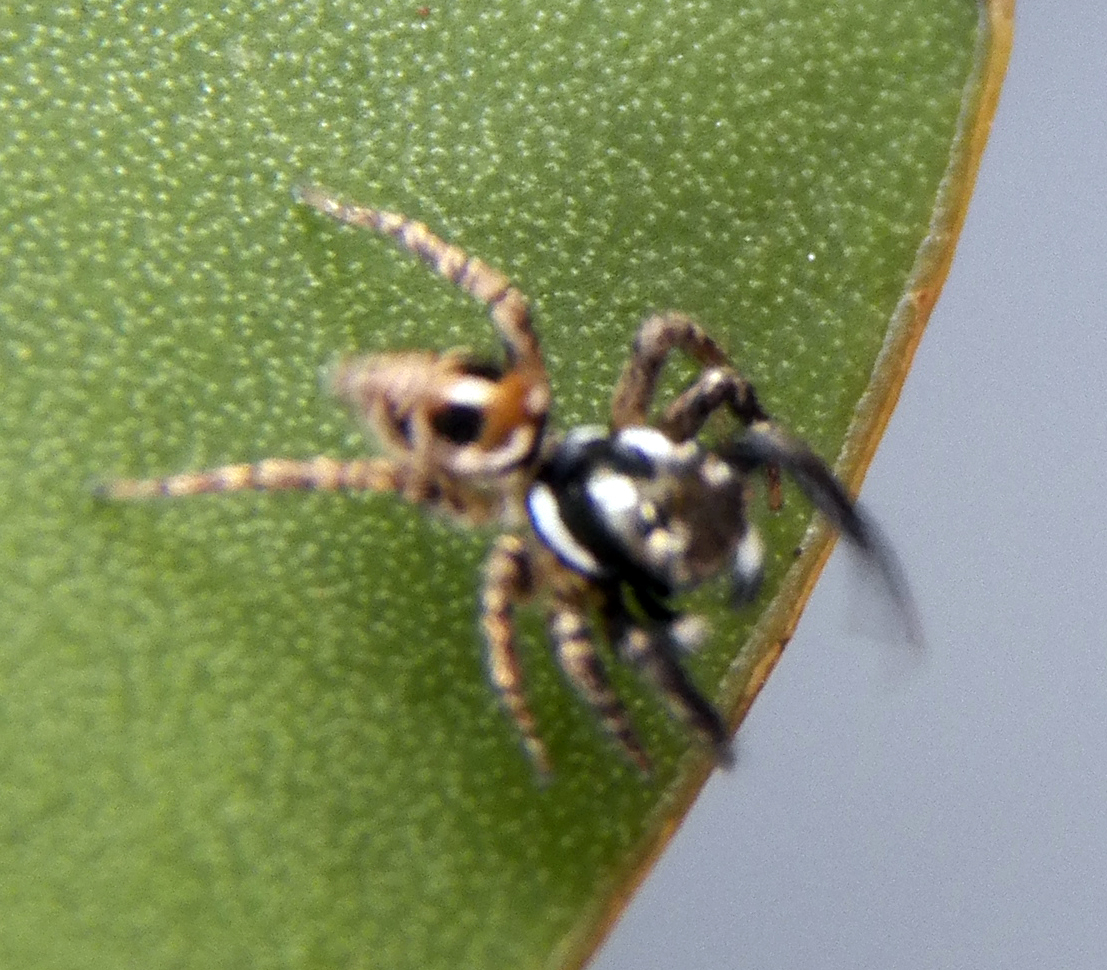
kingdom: Animalia
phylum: Arthropoda
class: Arachnida
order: Araneae
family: Salticidae
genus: Anasaitis
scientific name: Anasaitis canosa
